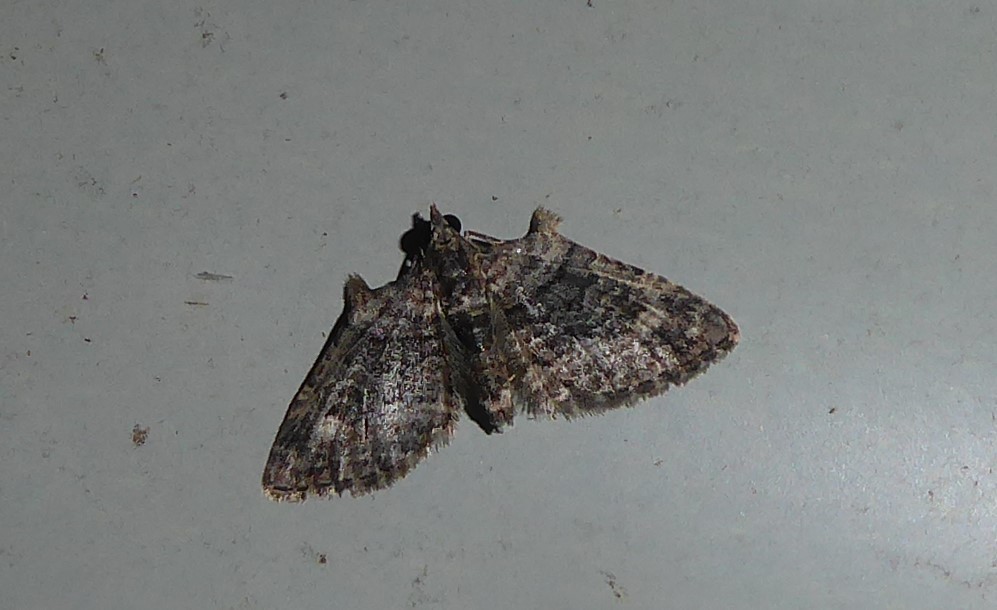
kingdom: Animalia
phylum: Arthropoda
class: Insecta
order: Lepidoptera
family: Geometridae
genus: Phrissogonus
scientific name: Phrissogonus laticostata
